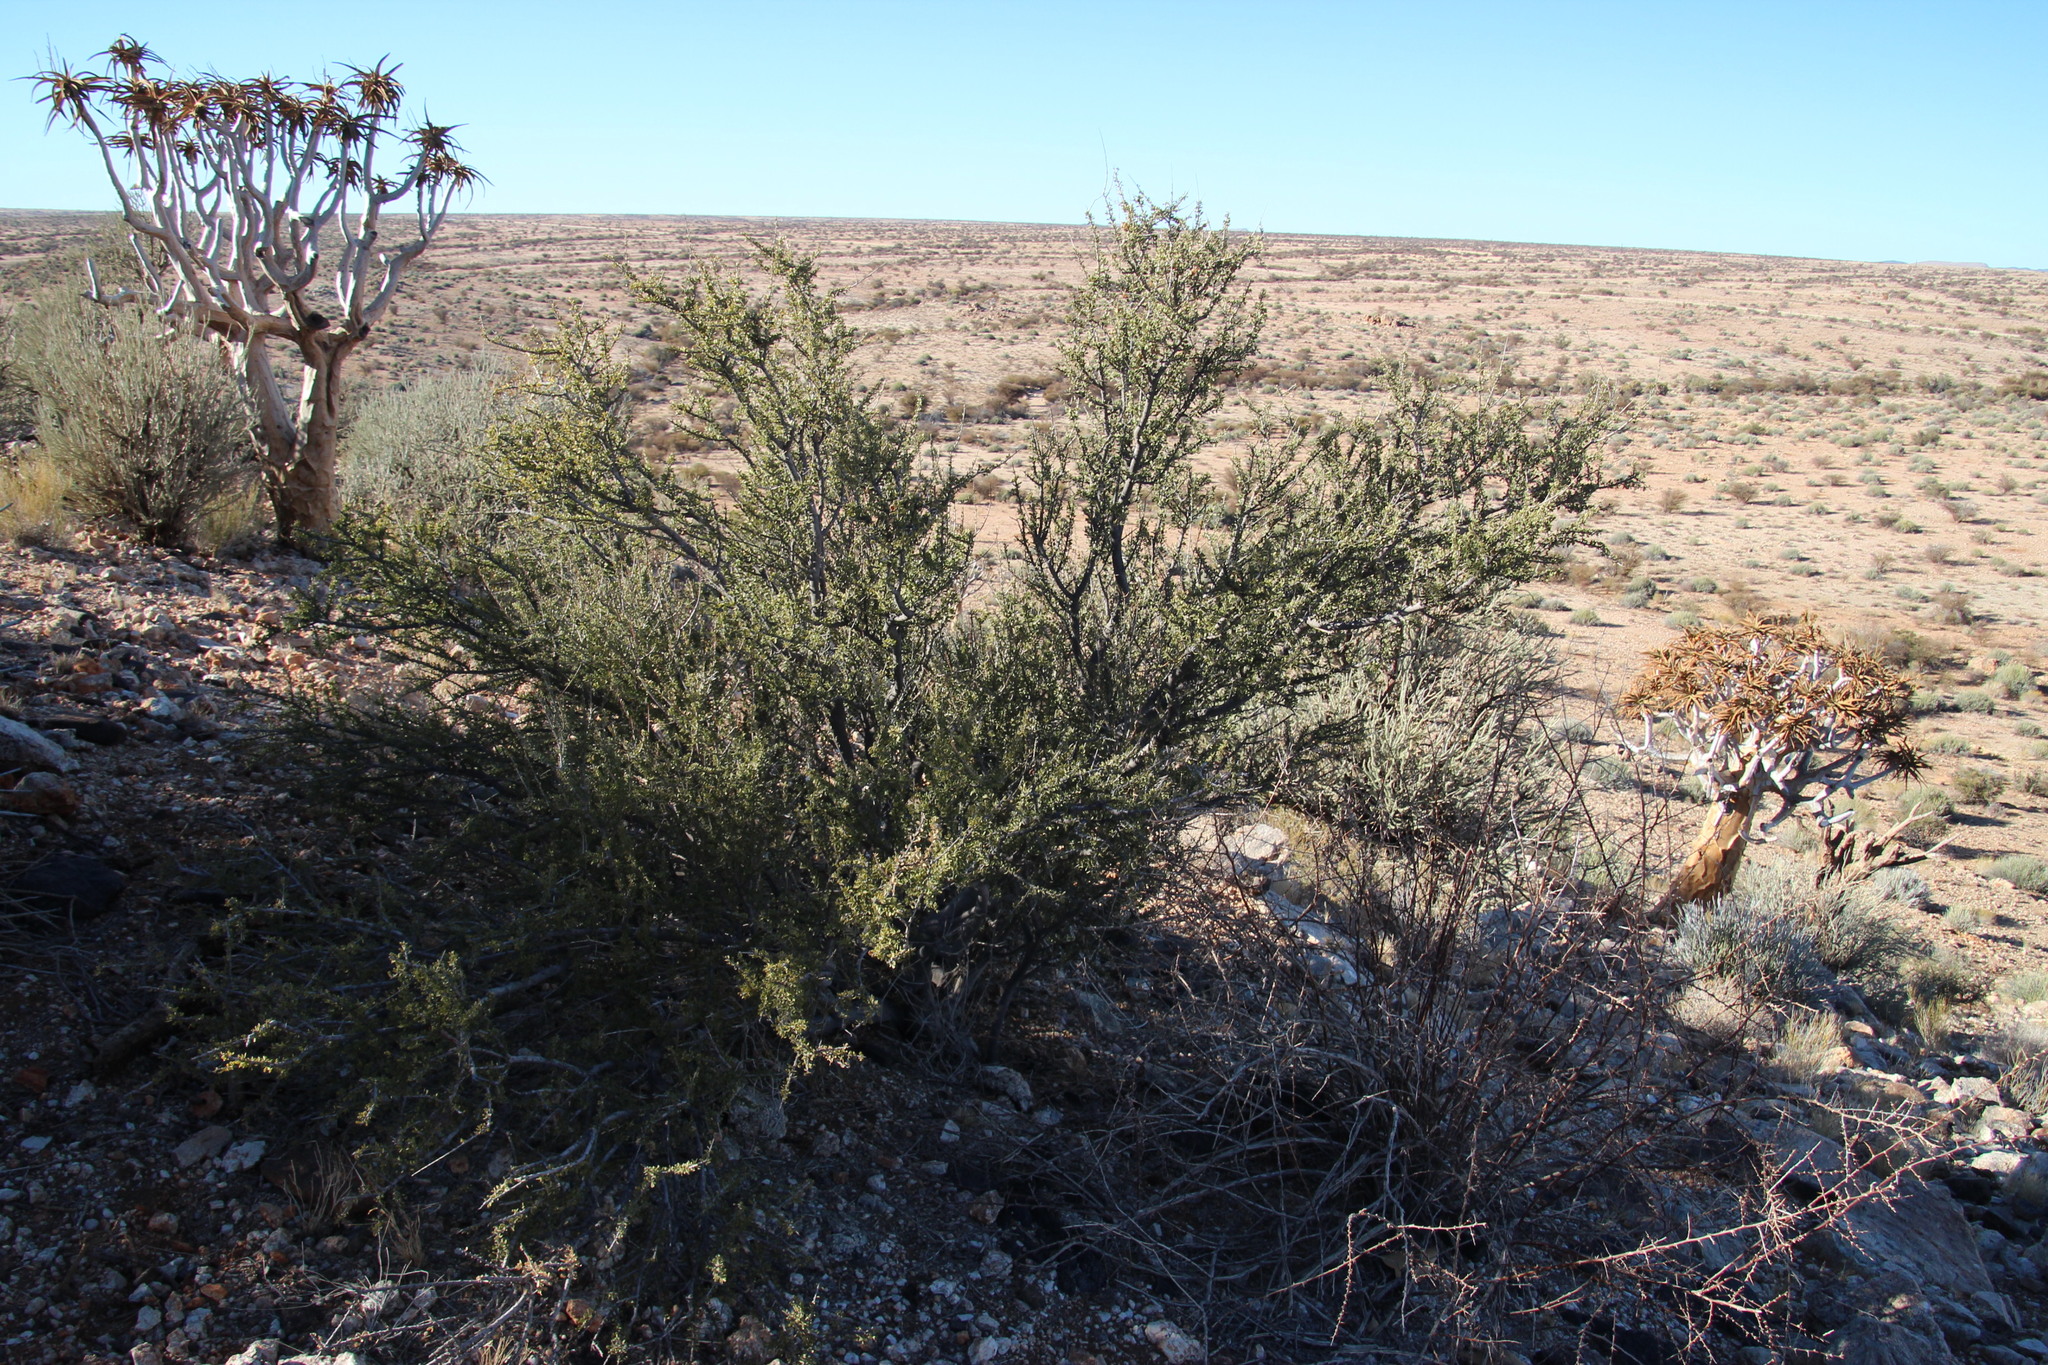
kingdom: Plantae
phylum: Tracheophyta
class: Magnoliopsida
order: Brassicales
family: Capparaceae
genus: Boscia
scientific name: Boscia foetida
